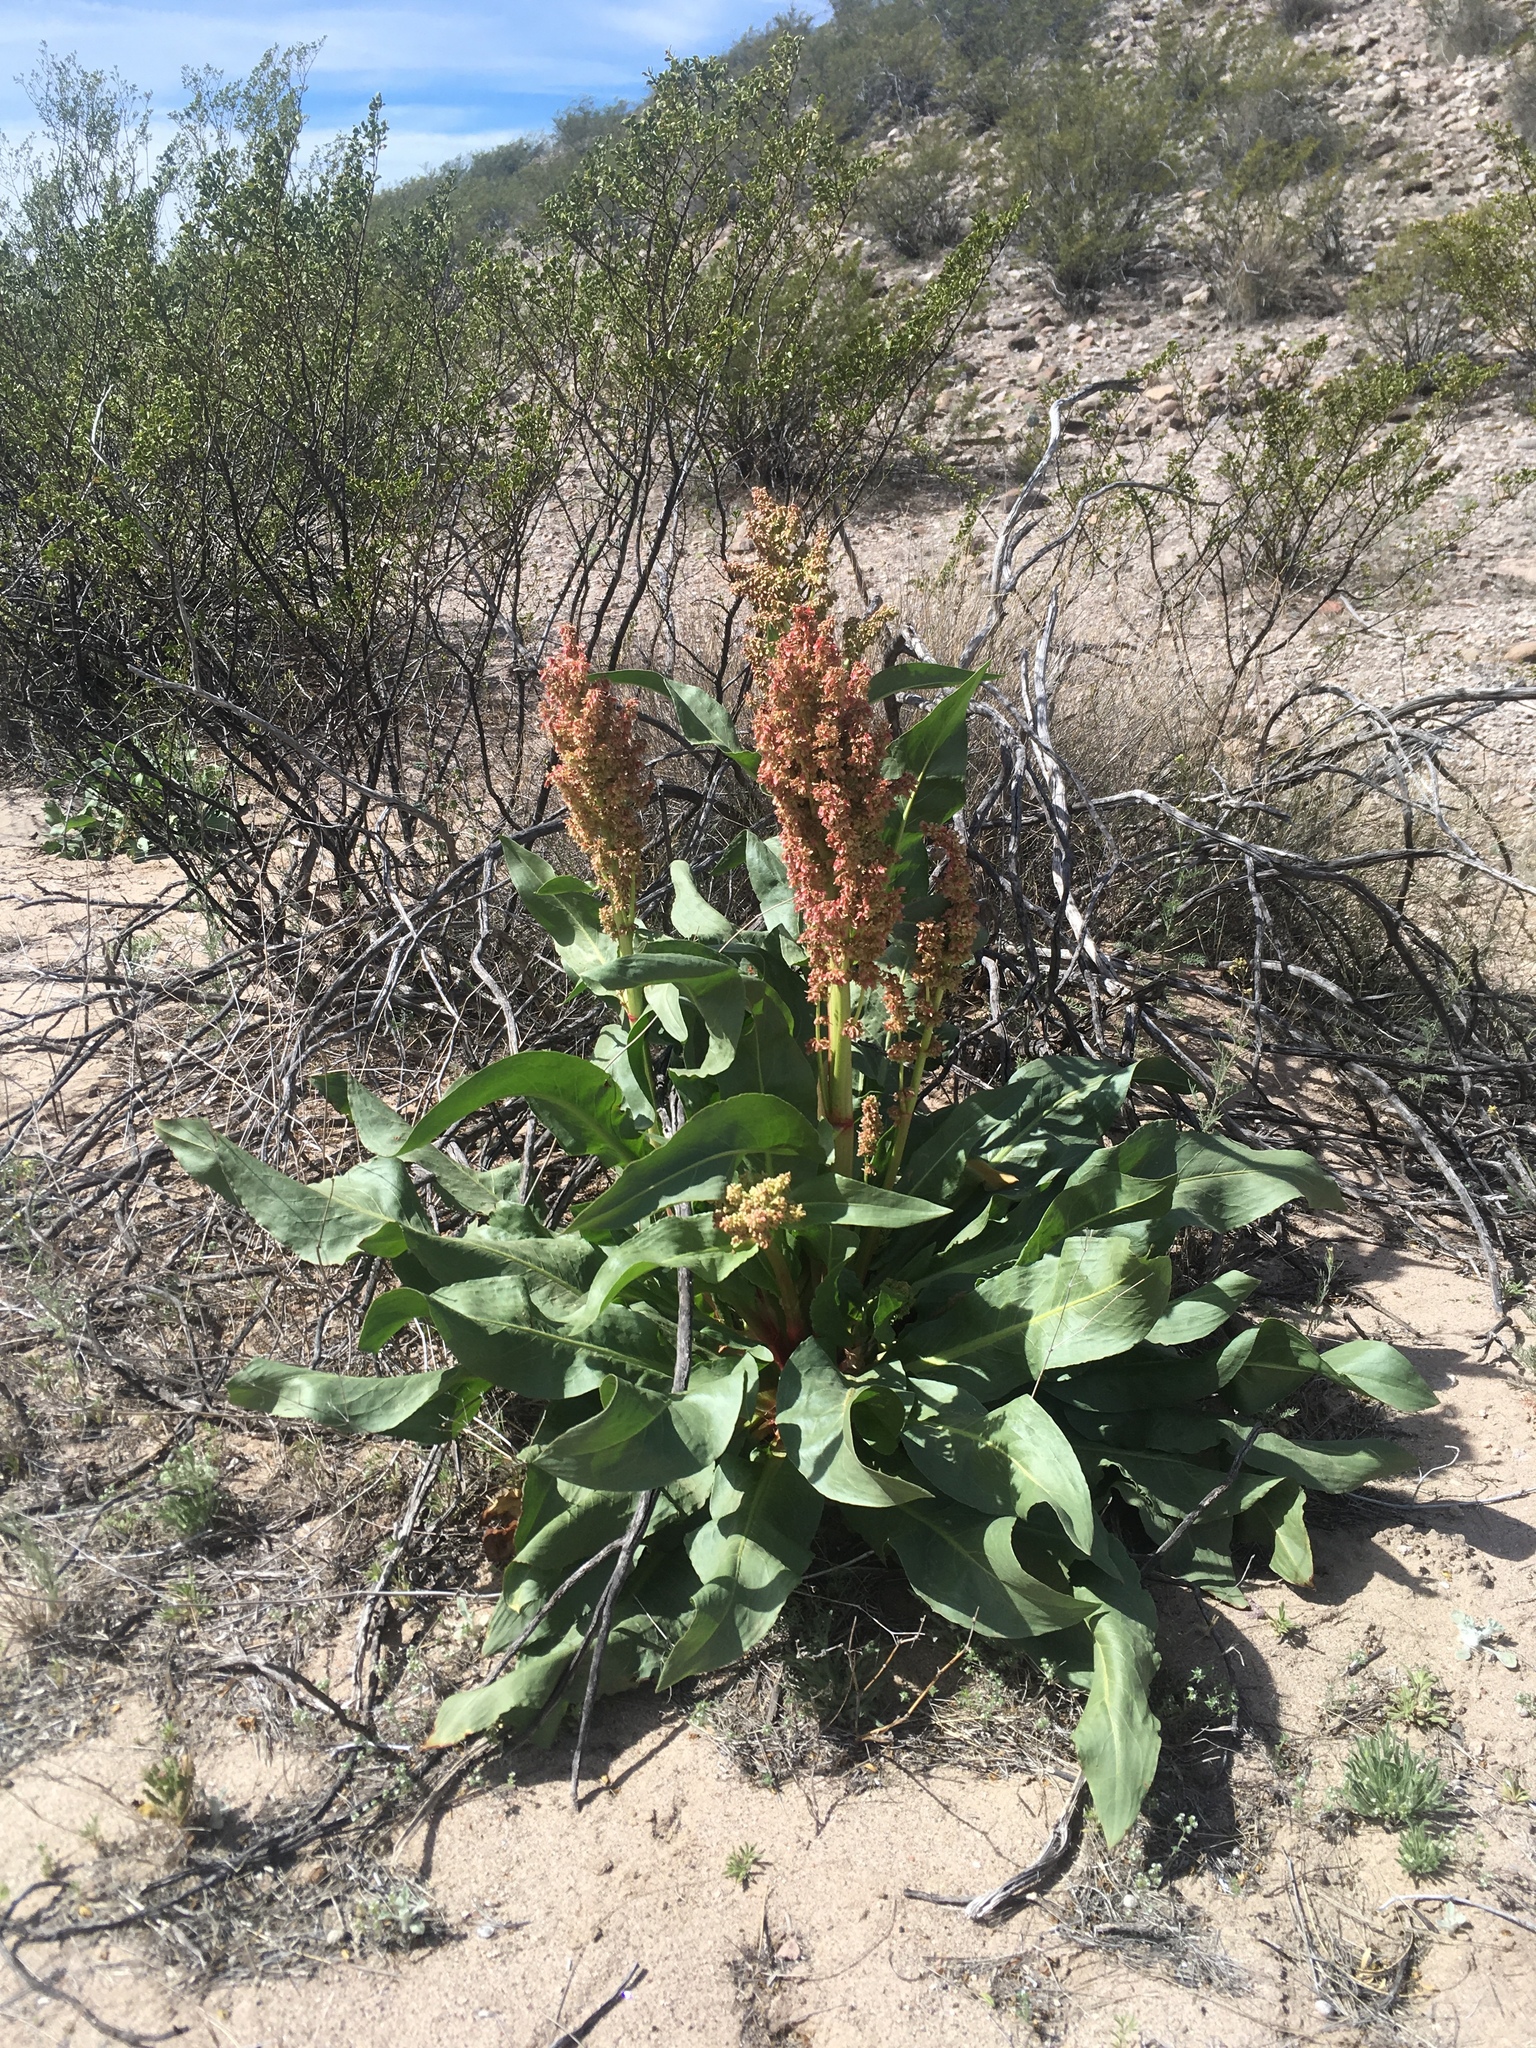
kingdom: Plantae
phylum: Tracheophyta
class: Magnoliopsida
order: Caryophyllales
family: Polygonaceae
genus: Rumex
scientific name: Rumex hymenosepalus
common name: Ganagra
